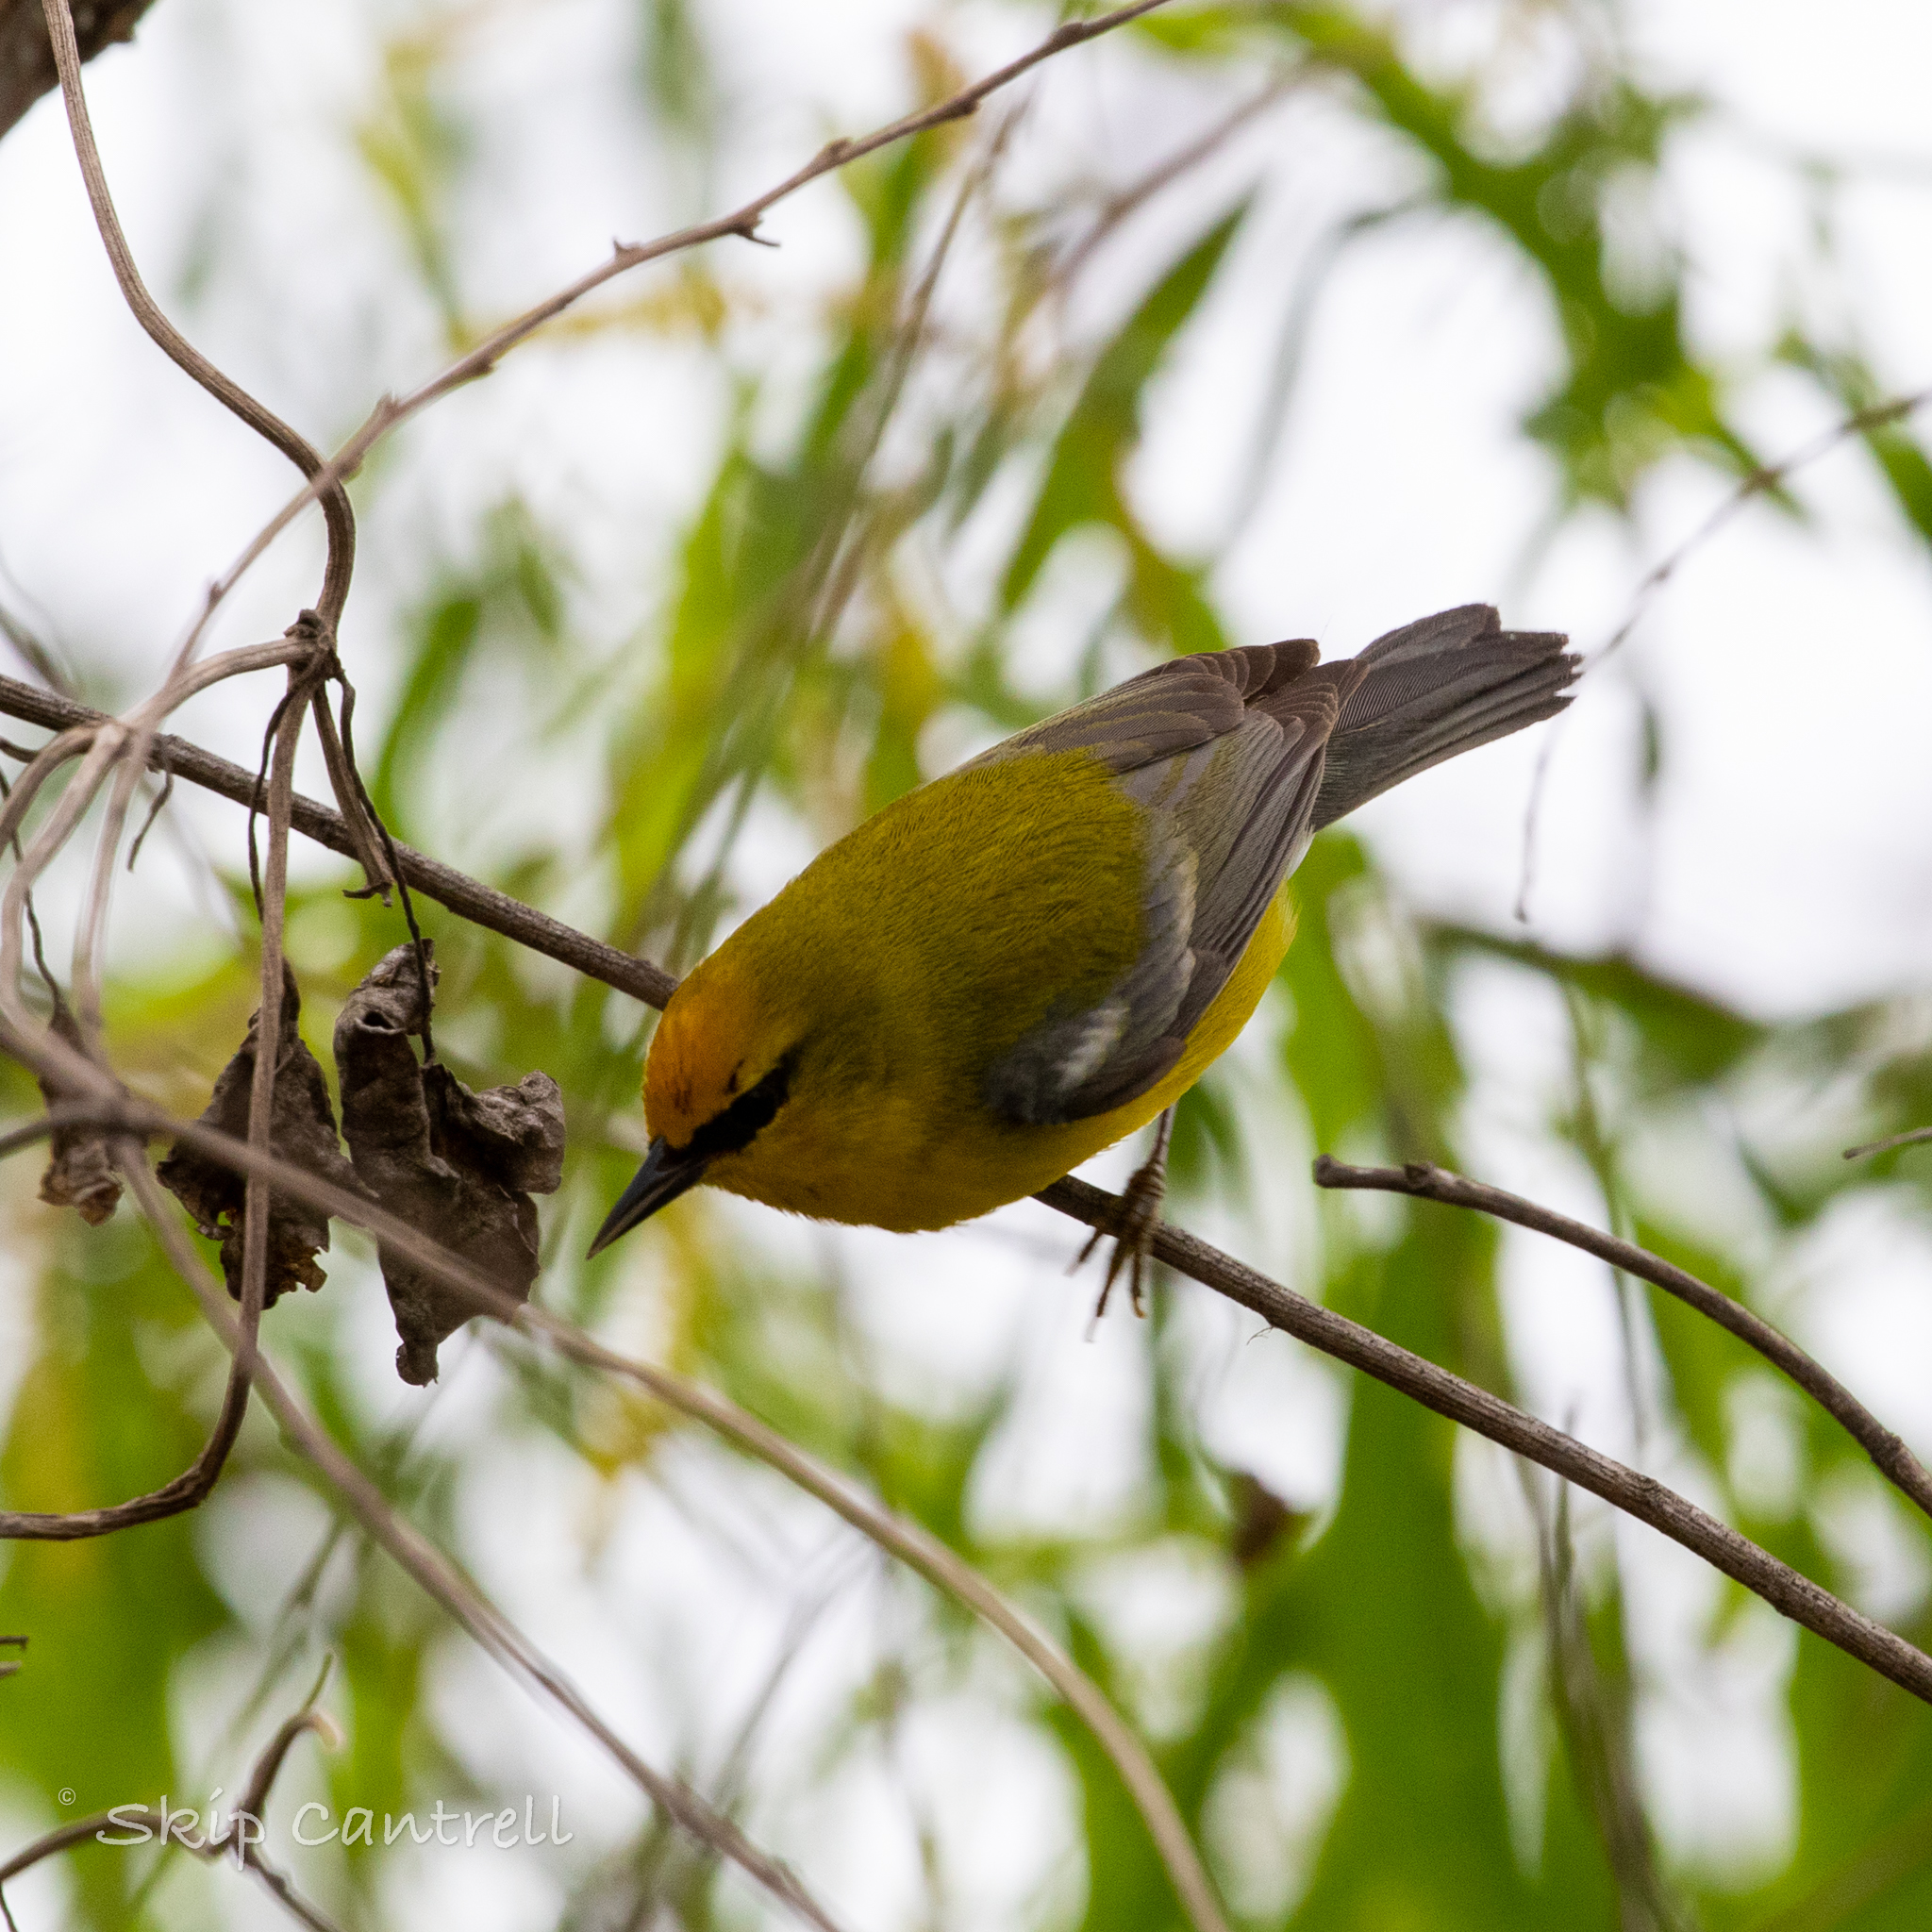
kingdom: Animalia
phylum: Chordata
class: Aves
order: Passeriformes
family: Parulidae
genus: Vermivora
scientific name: Vermivora cyanoptera
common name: Blue-winged warbler
